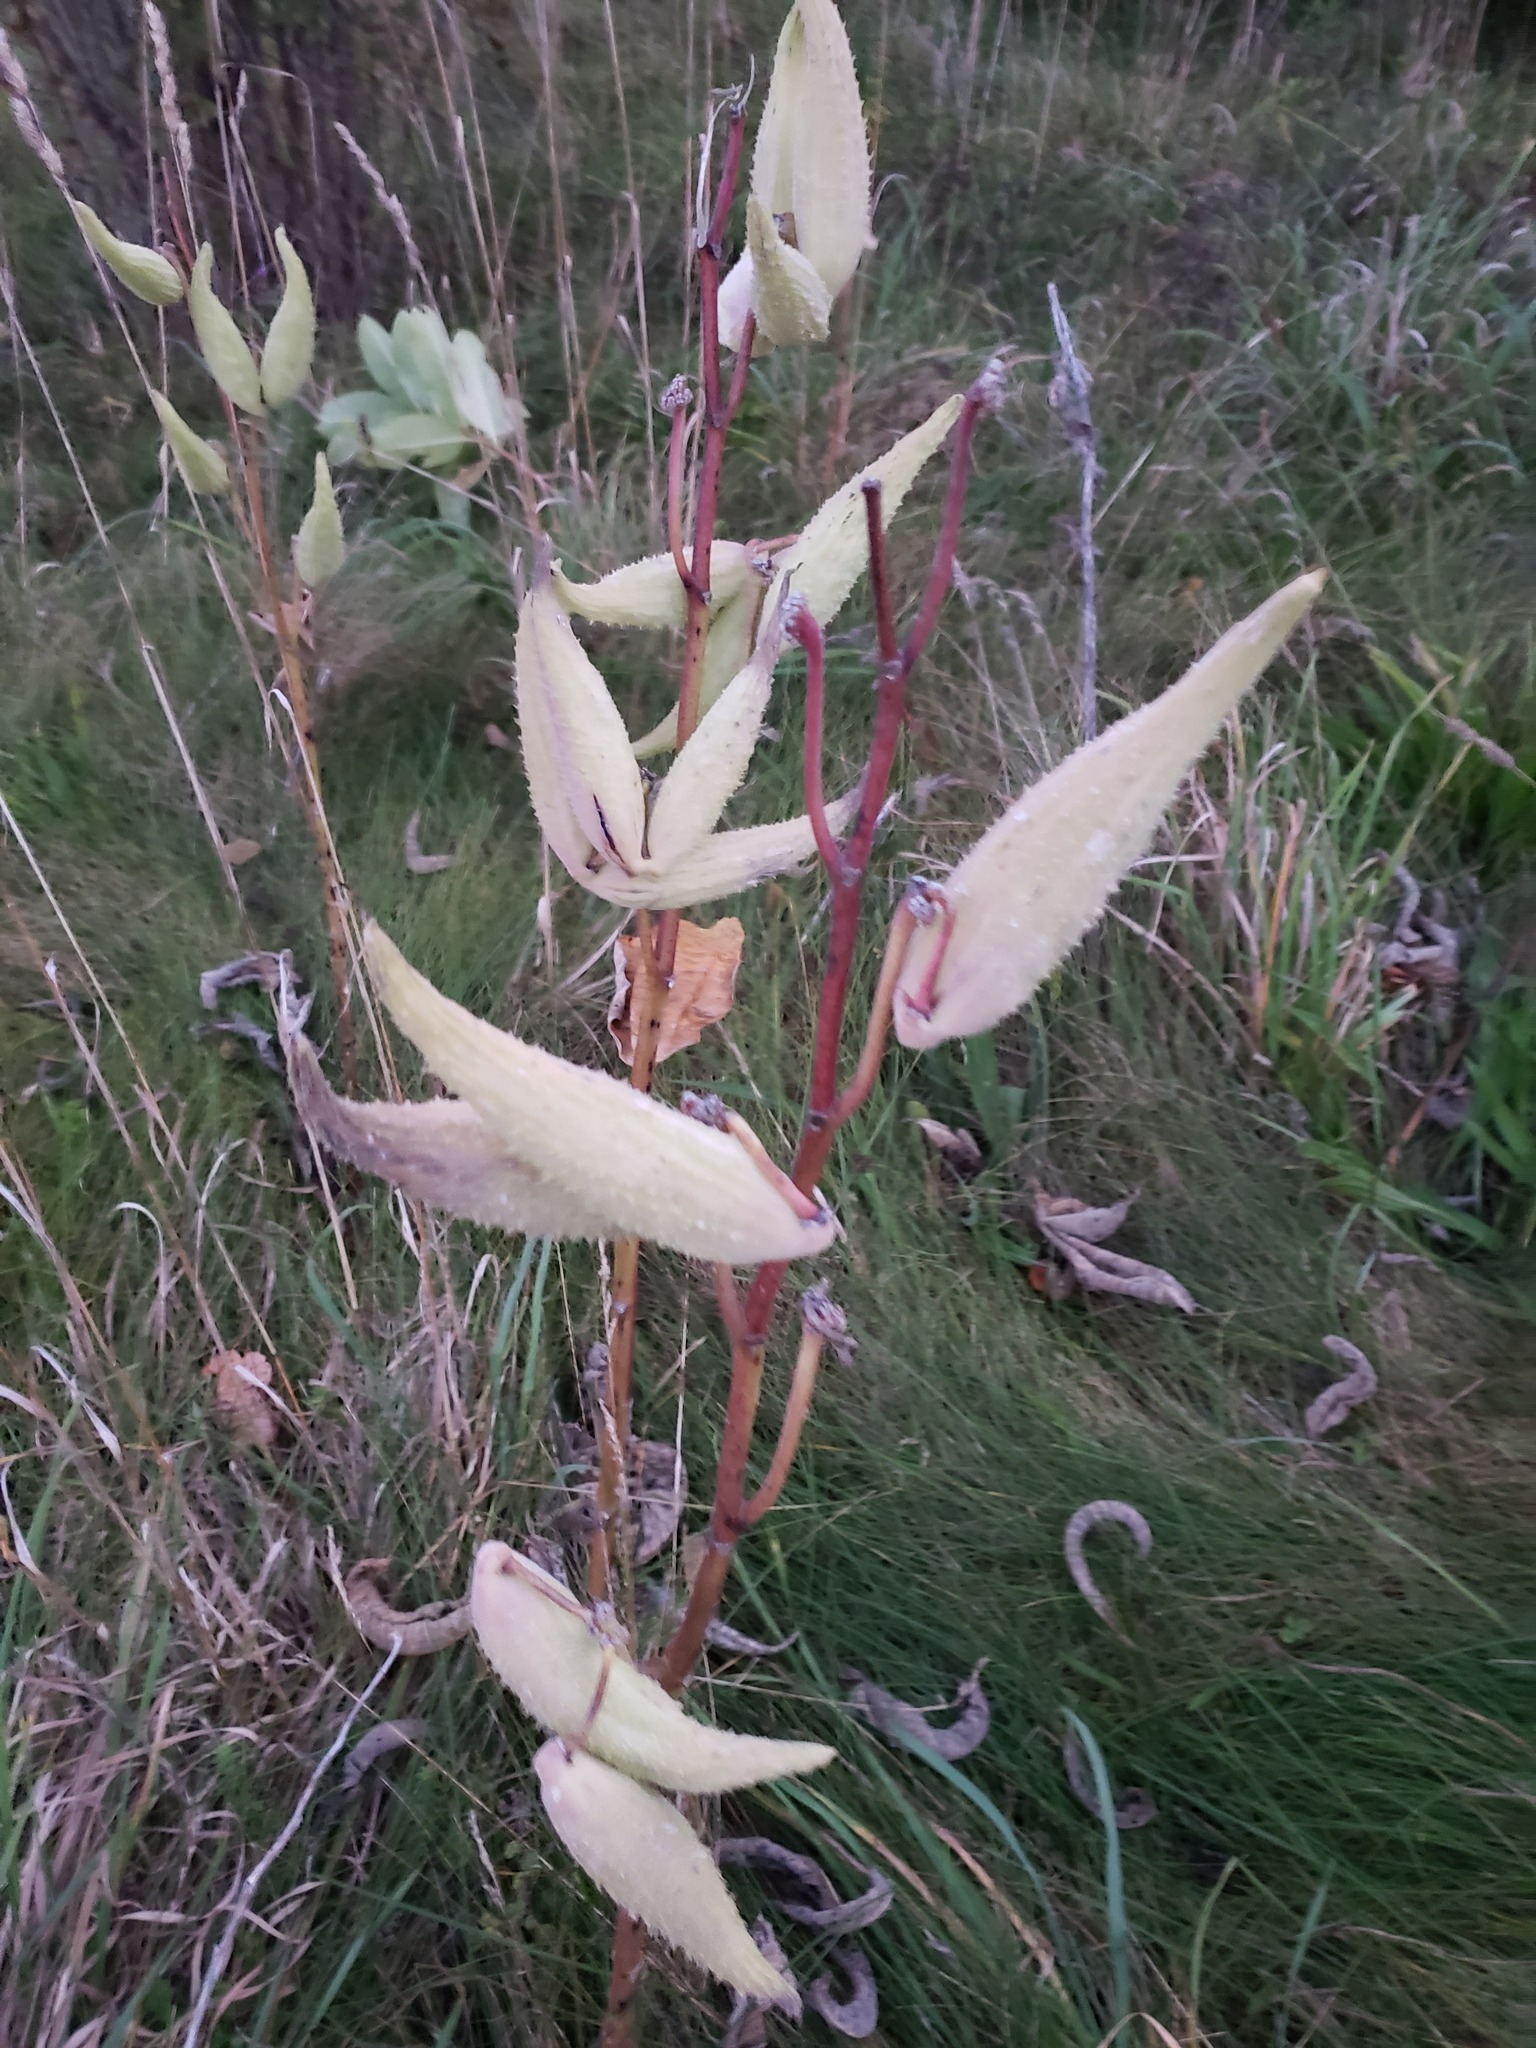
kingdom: Plantae
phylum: Tracheophyta
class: Magnoliopsida
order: Gentianales
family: Apocynaceae
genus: Asclepias
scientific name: Asclepias syriaca
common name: Common milkweed
